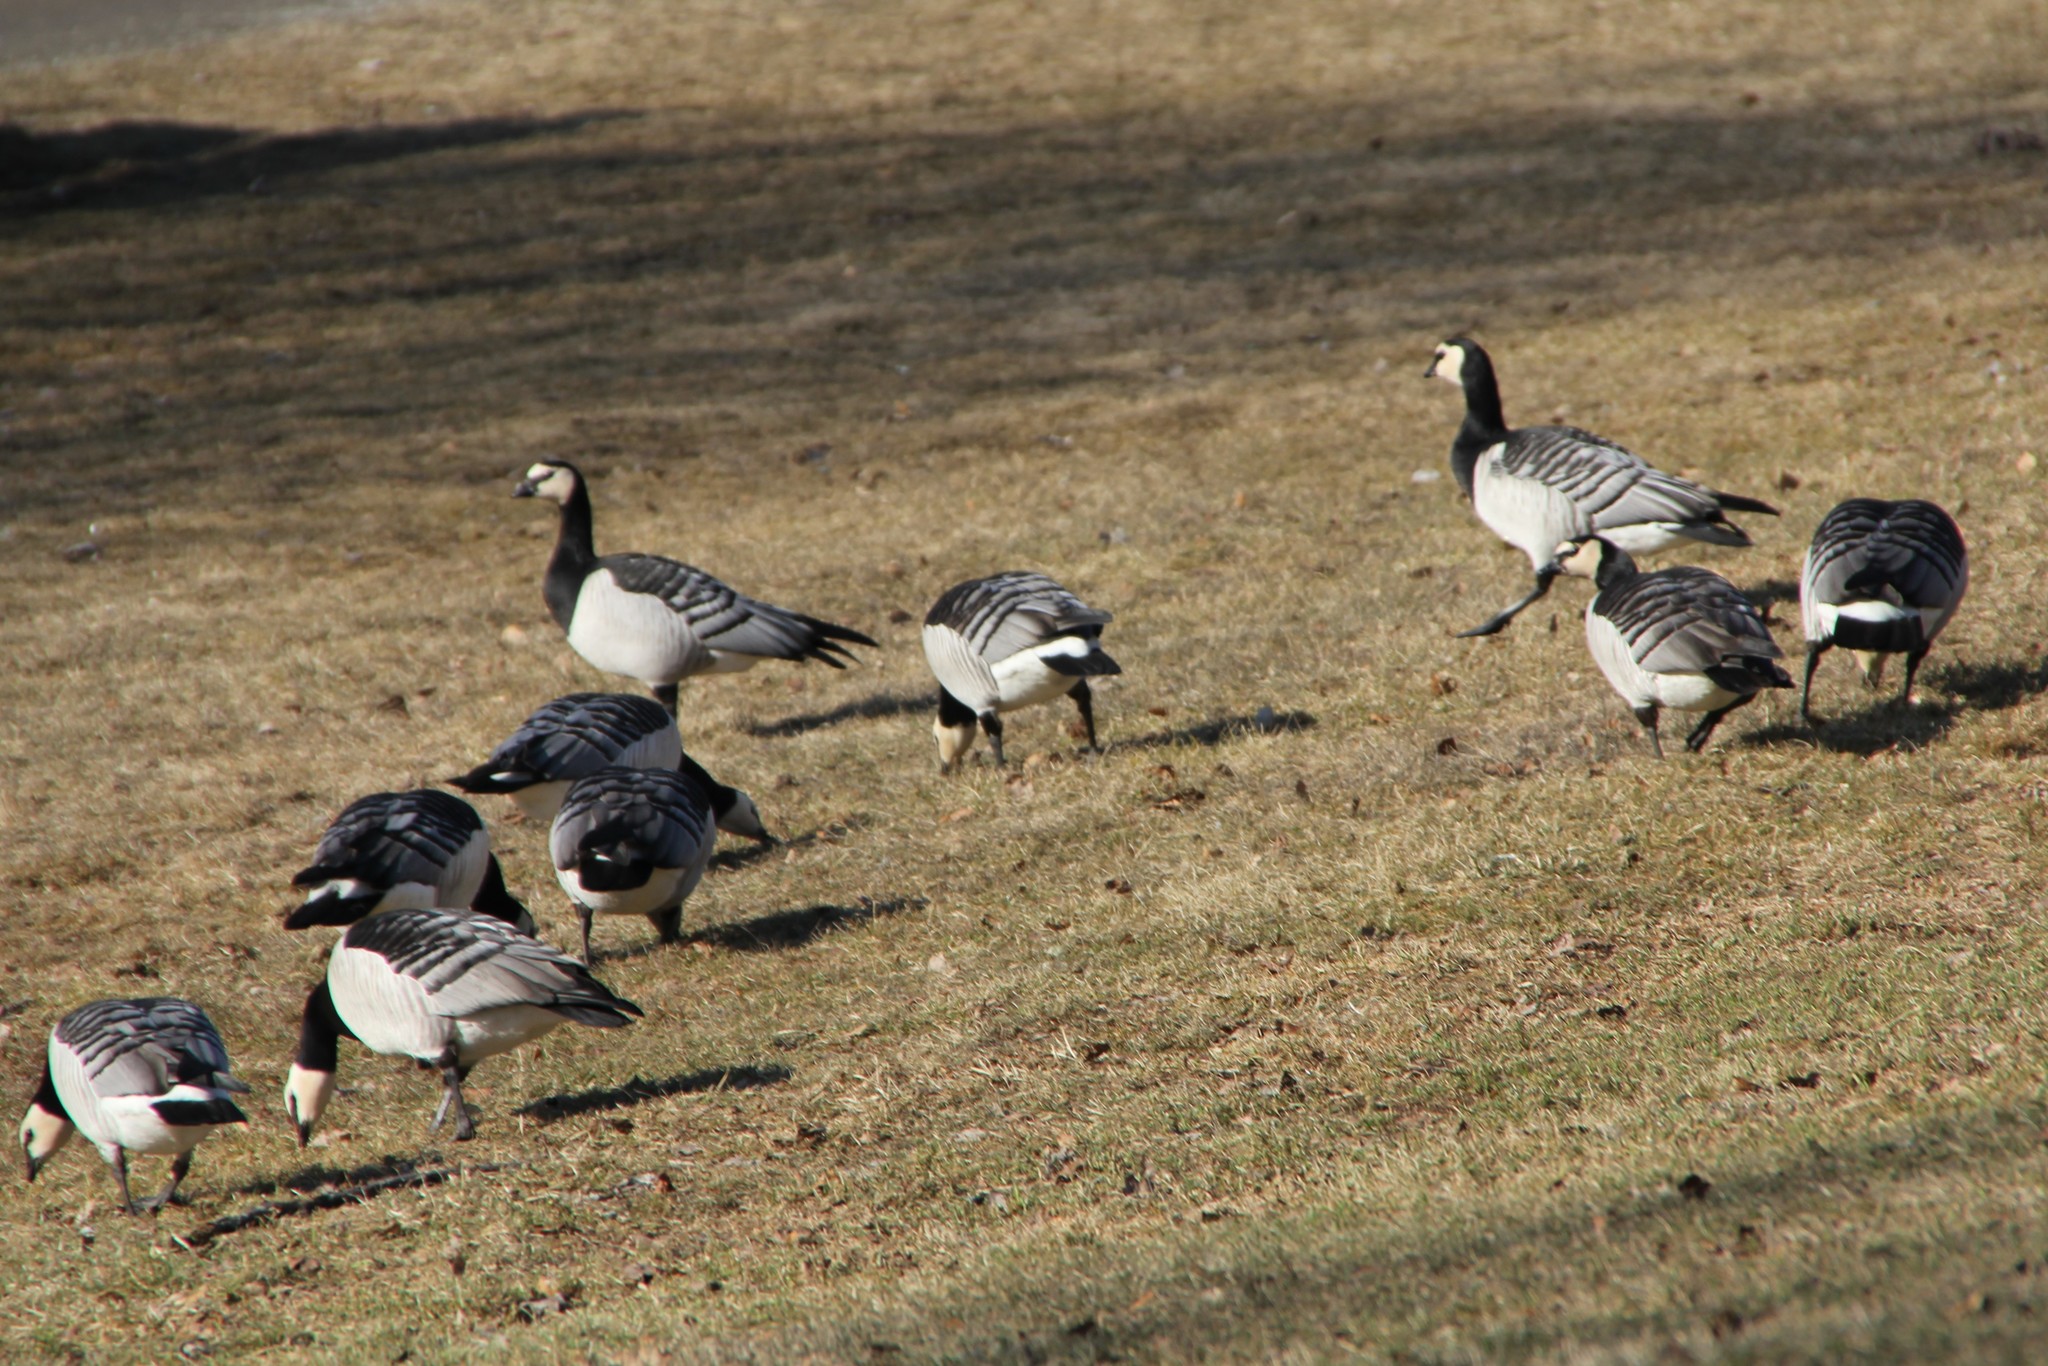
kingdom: Animalia
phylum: Chordata
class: Aves
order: Anseriformes
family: Anatidae
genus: Branta
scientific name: Branta leucopsis
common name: Barnacle goose
